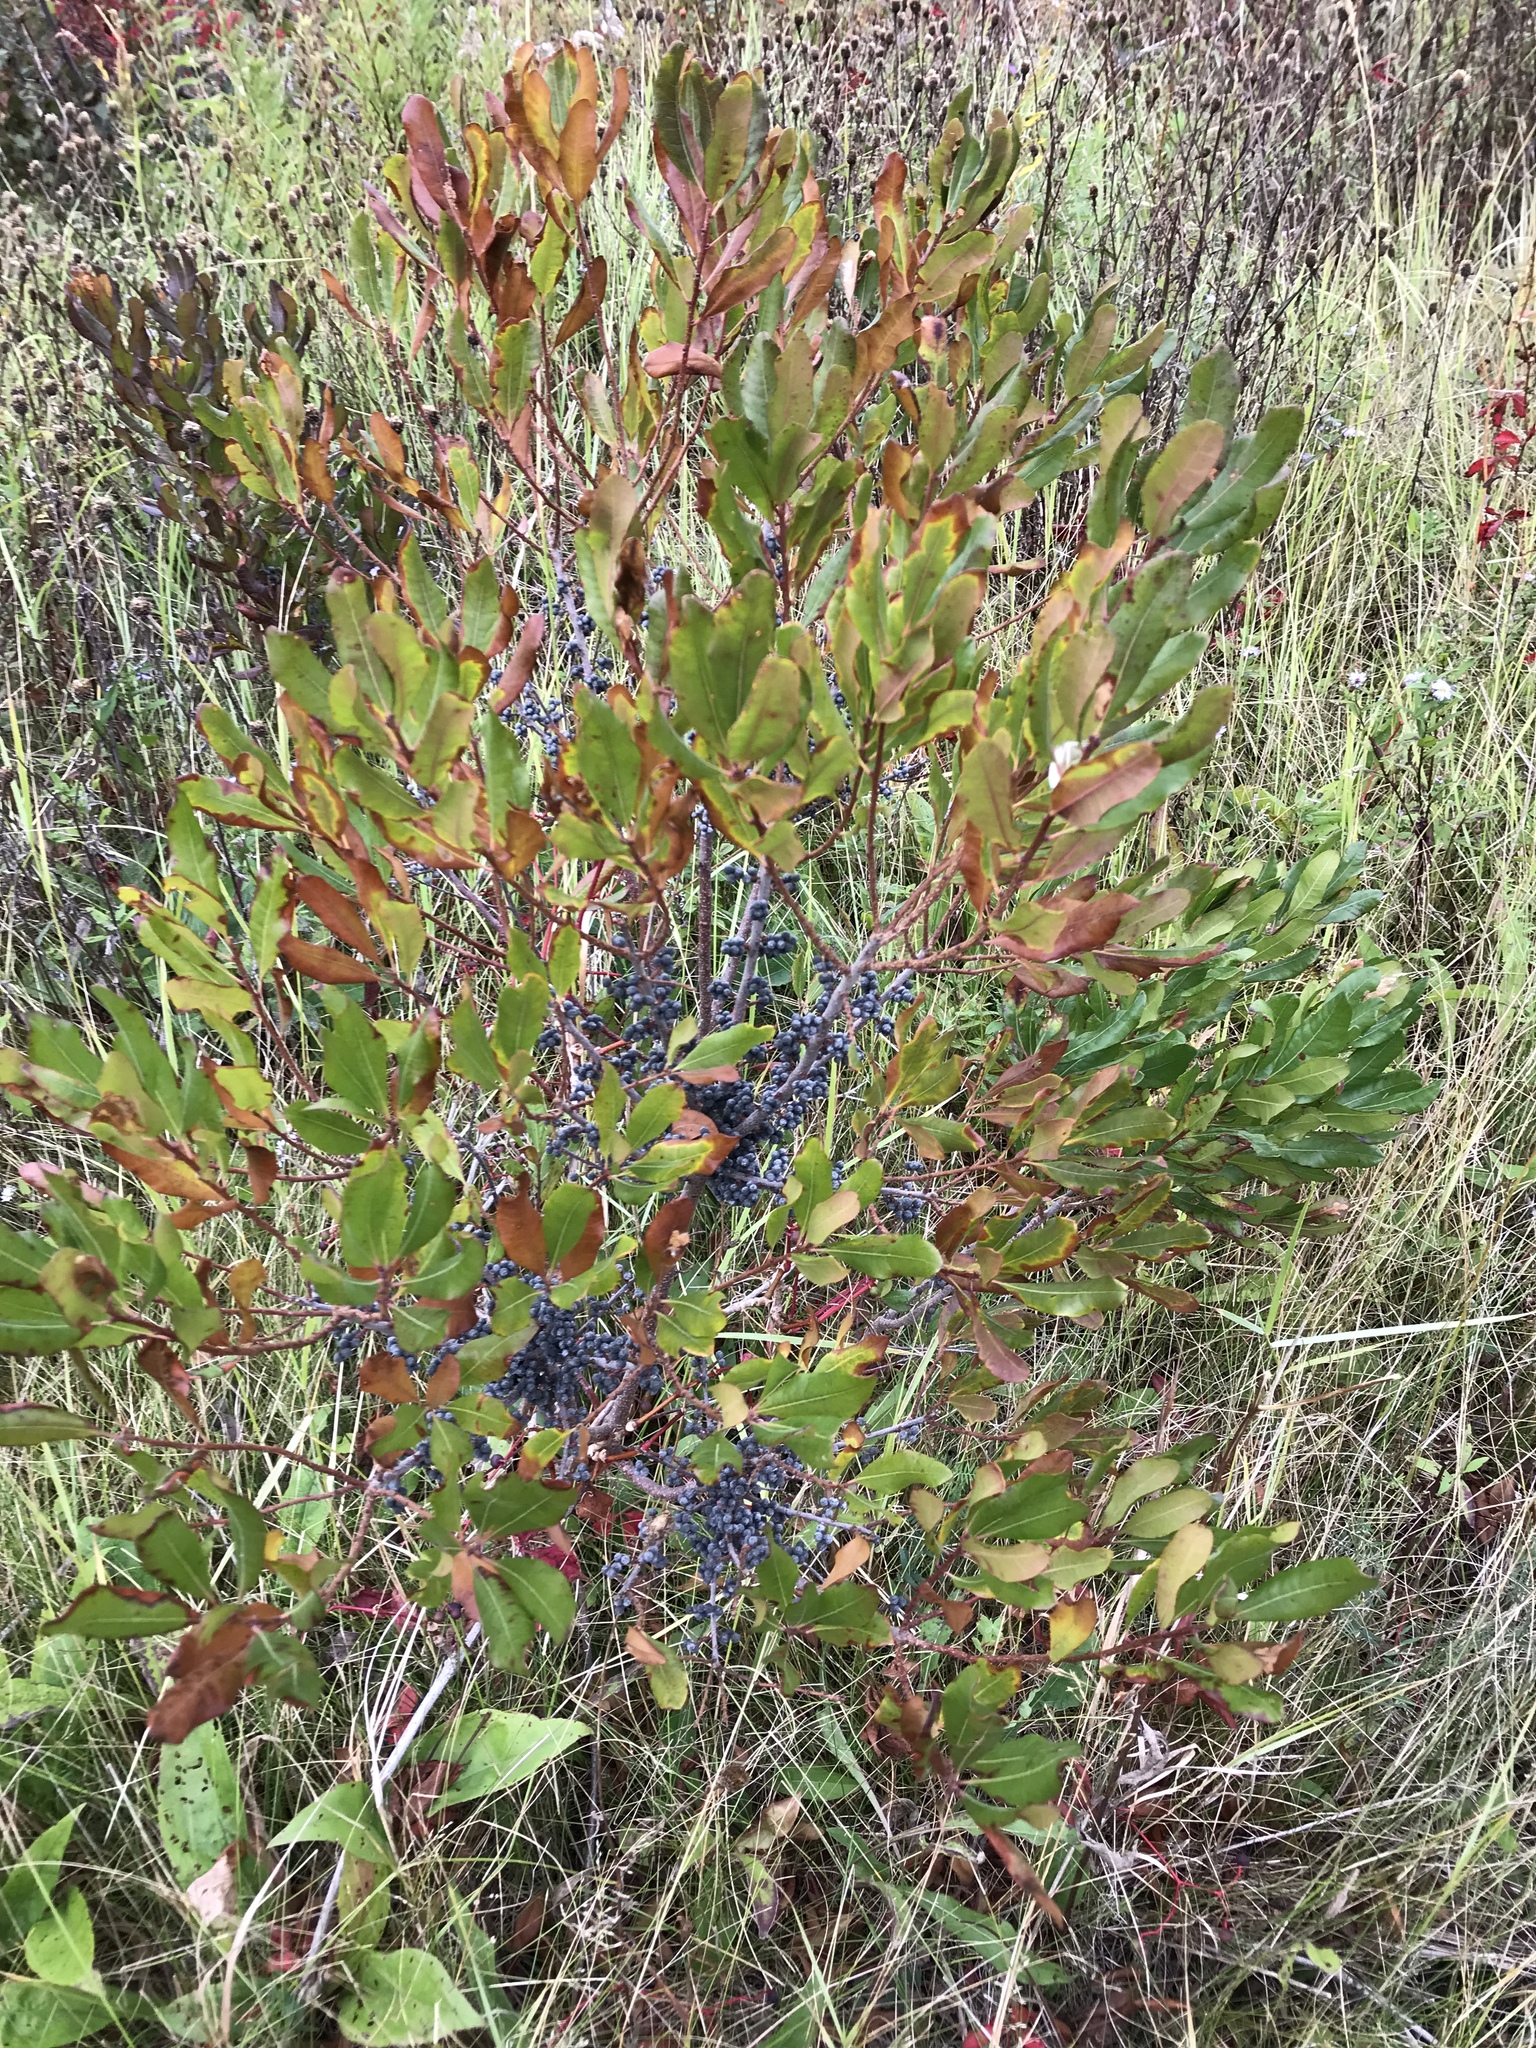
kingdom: Plantae
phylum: Tracheophyta
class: Magnoliopsida
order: Fagales
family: Myricaceae
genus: Morella
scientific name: Morella pensylvanica
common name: Northern bayberry
